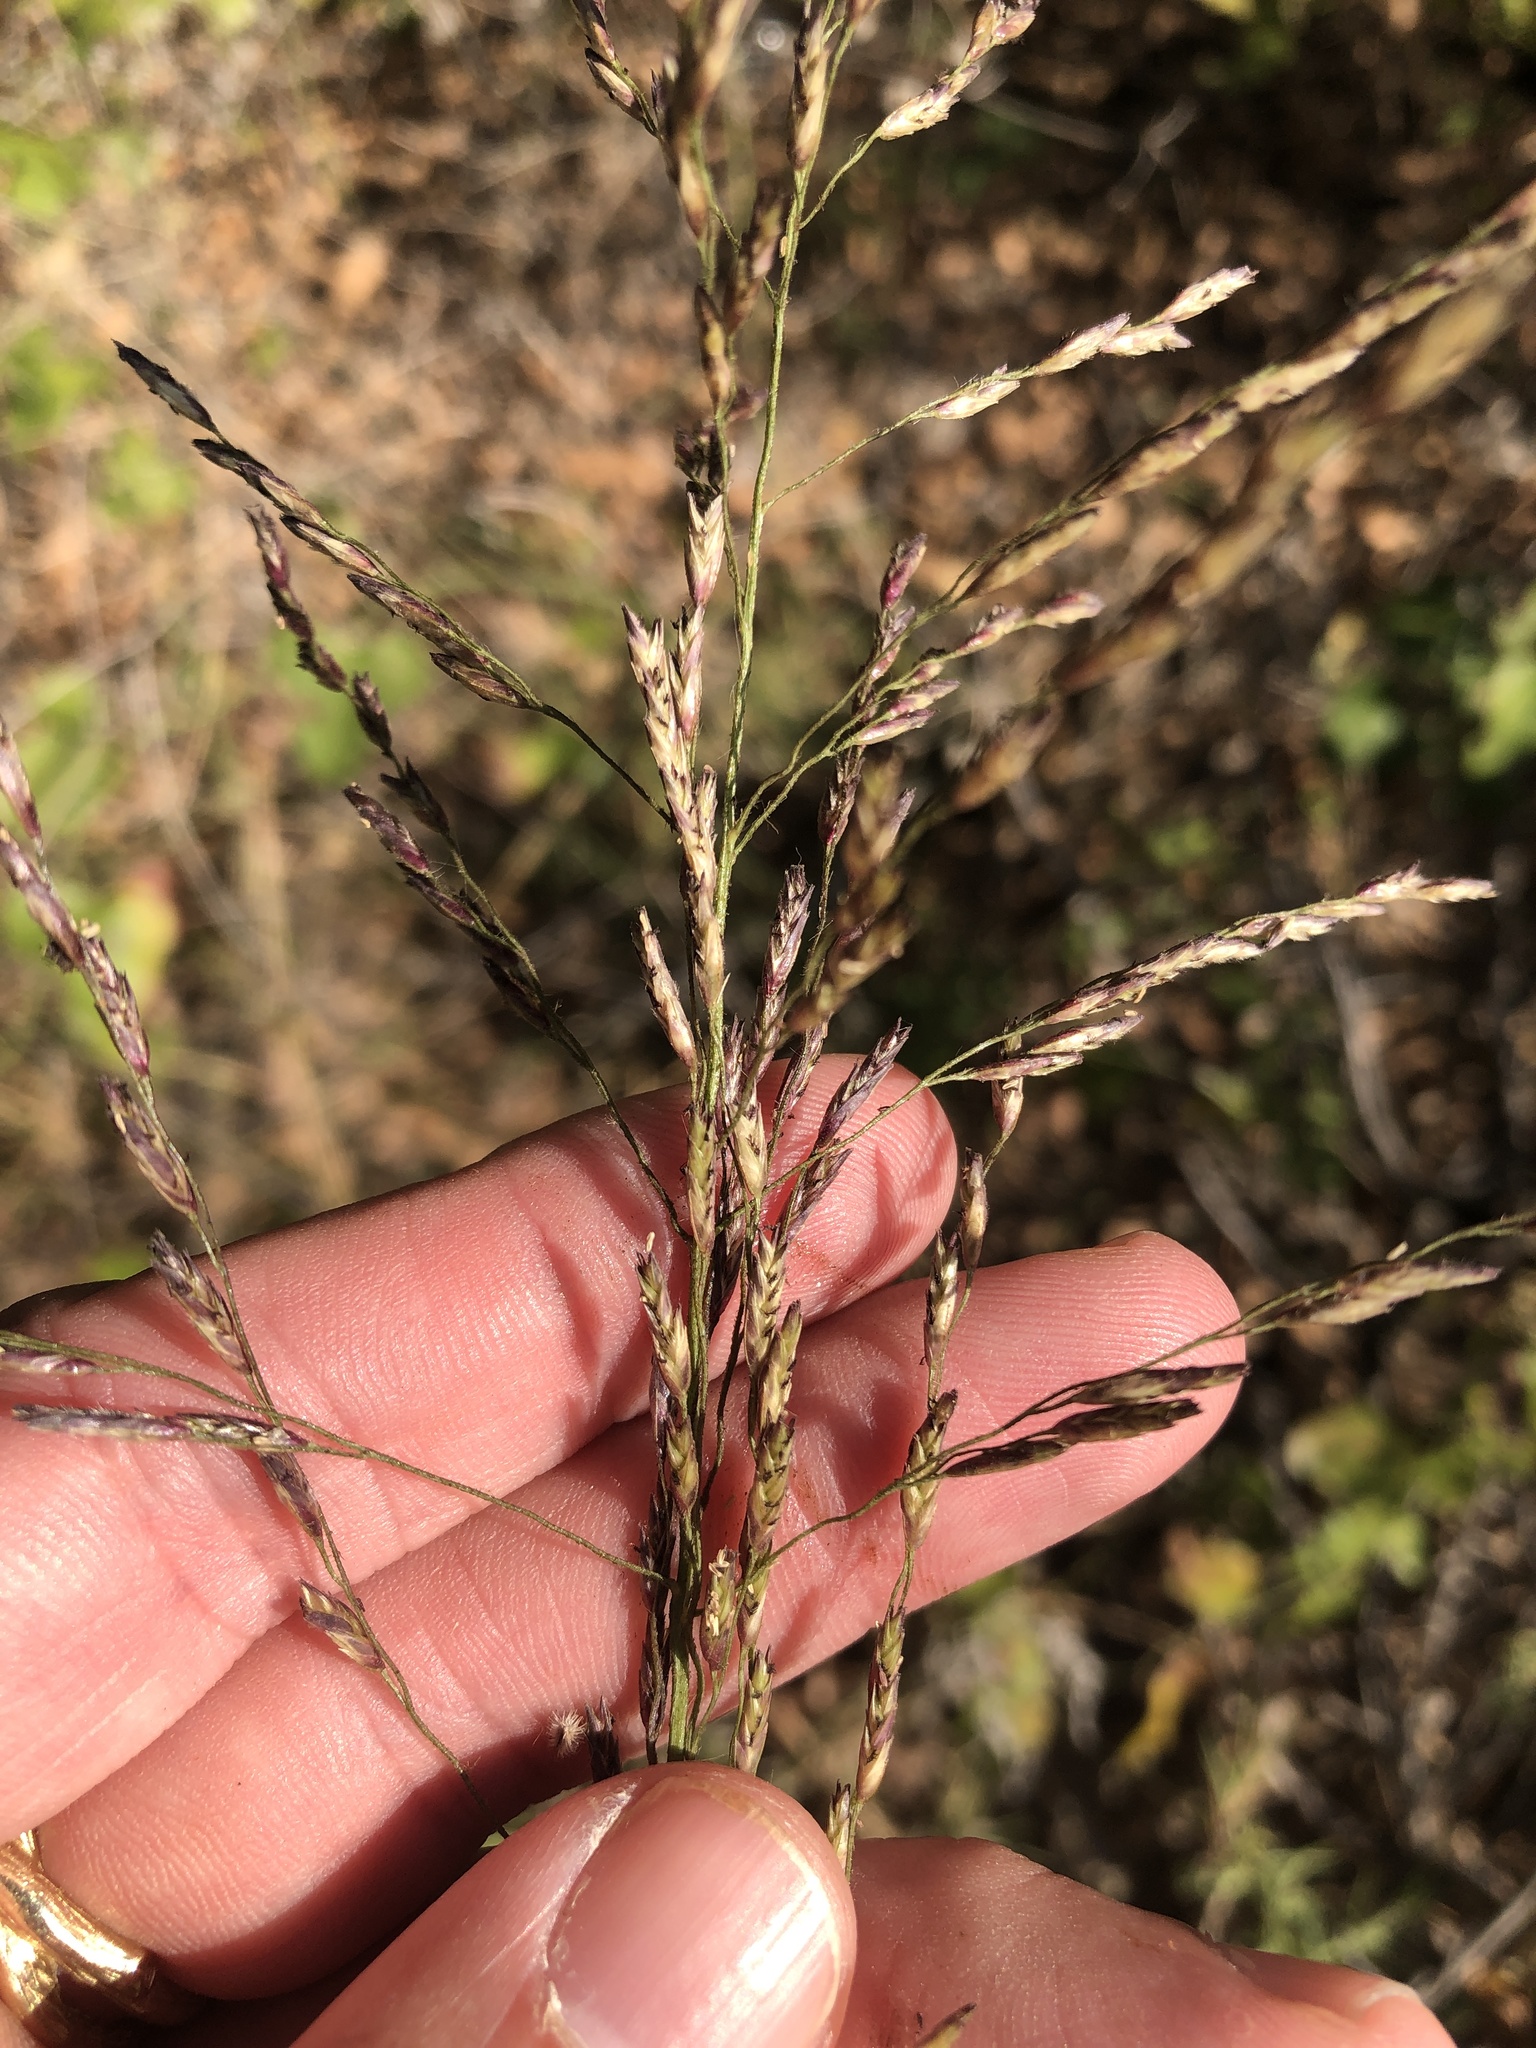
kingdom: Plantae
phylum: Tracheophyta
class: Liliopsida
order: Poales
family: Poaceae
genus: Tridens
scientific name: Tridens flavus
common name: Purpletop
